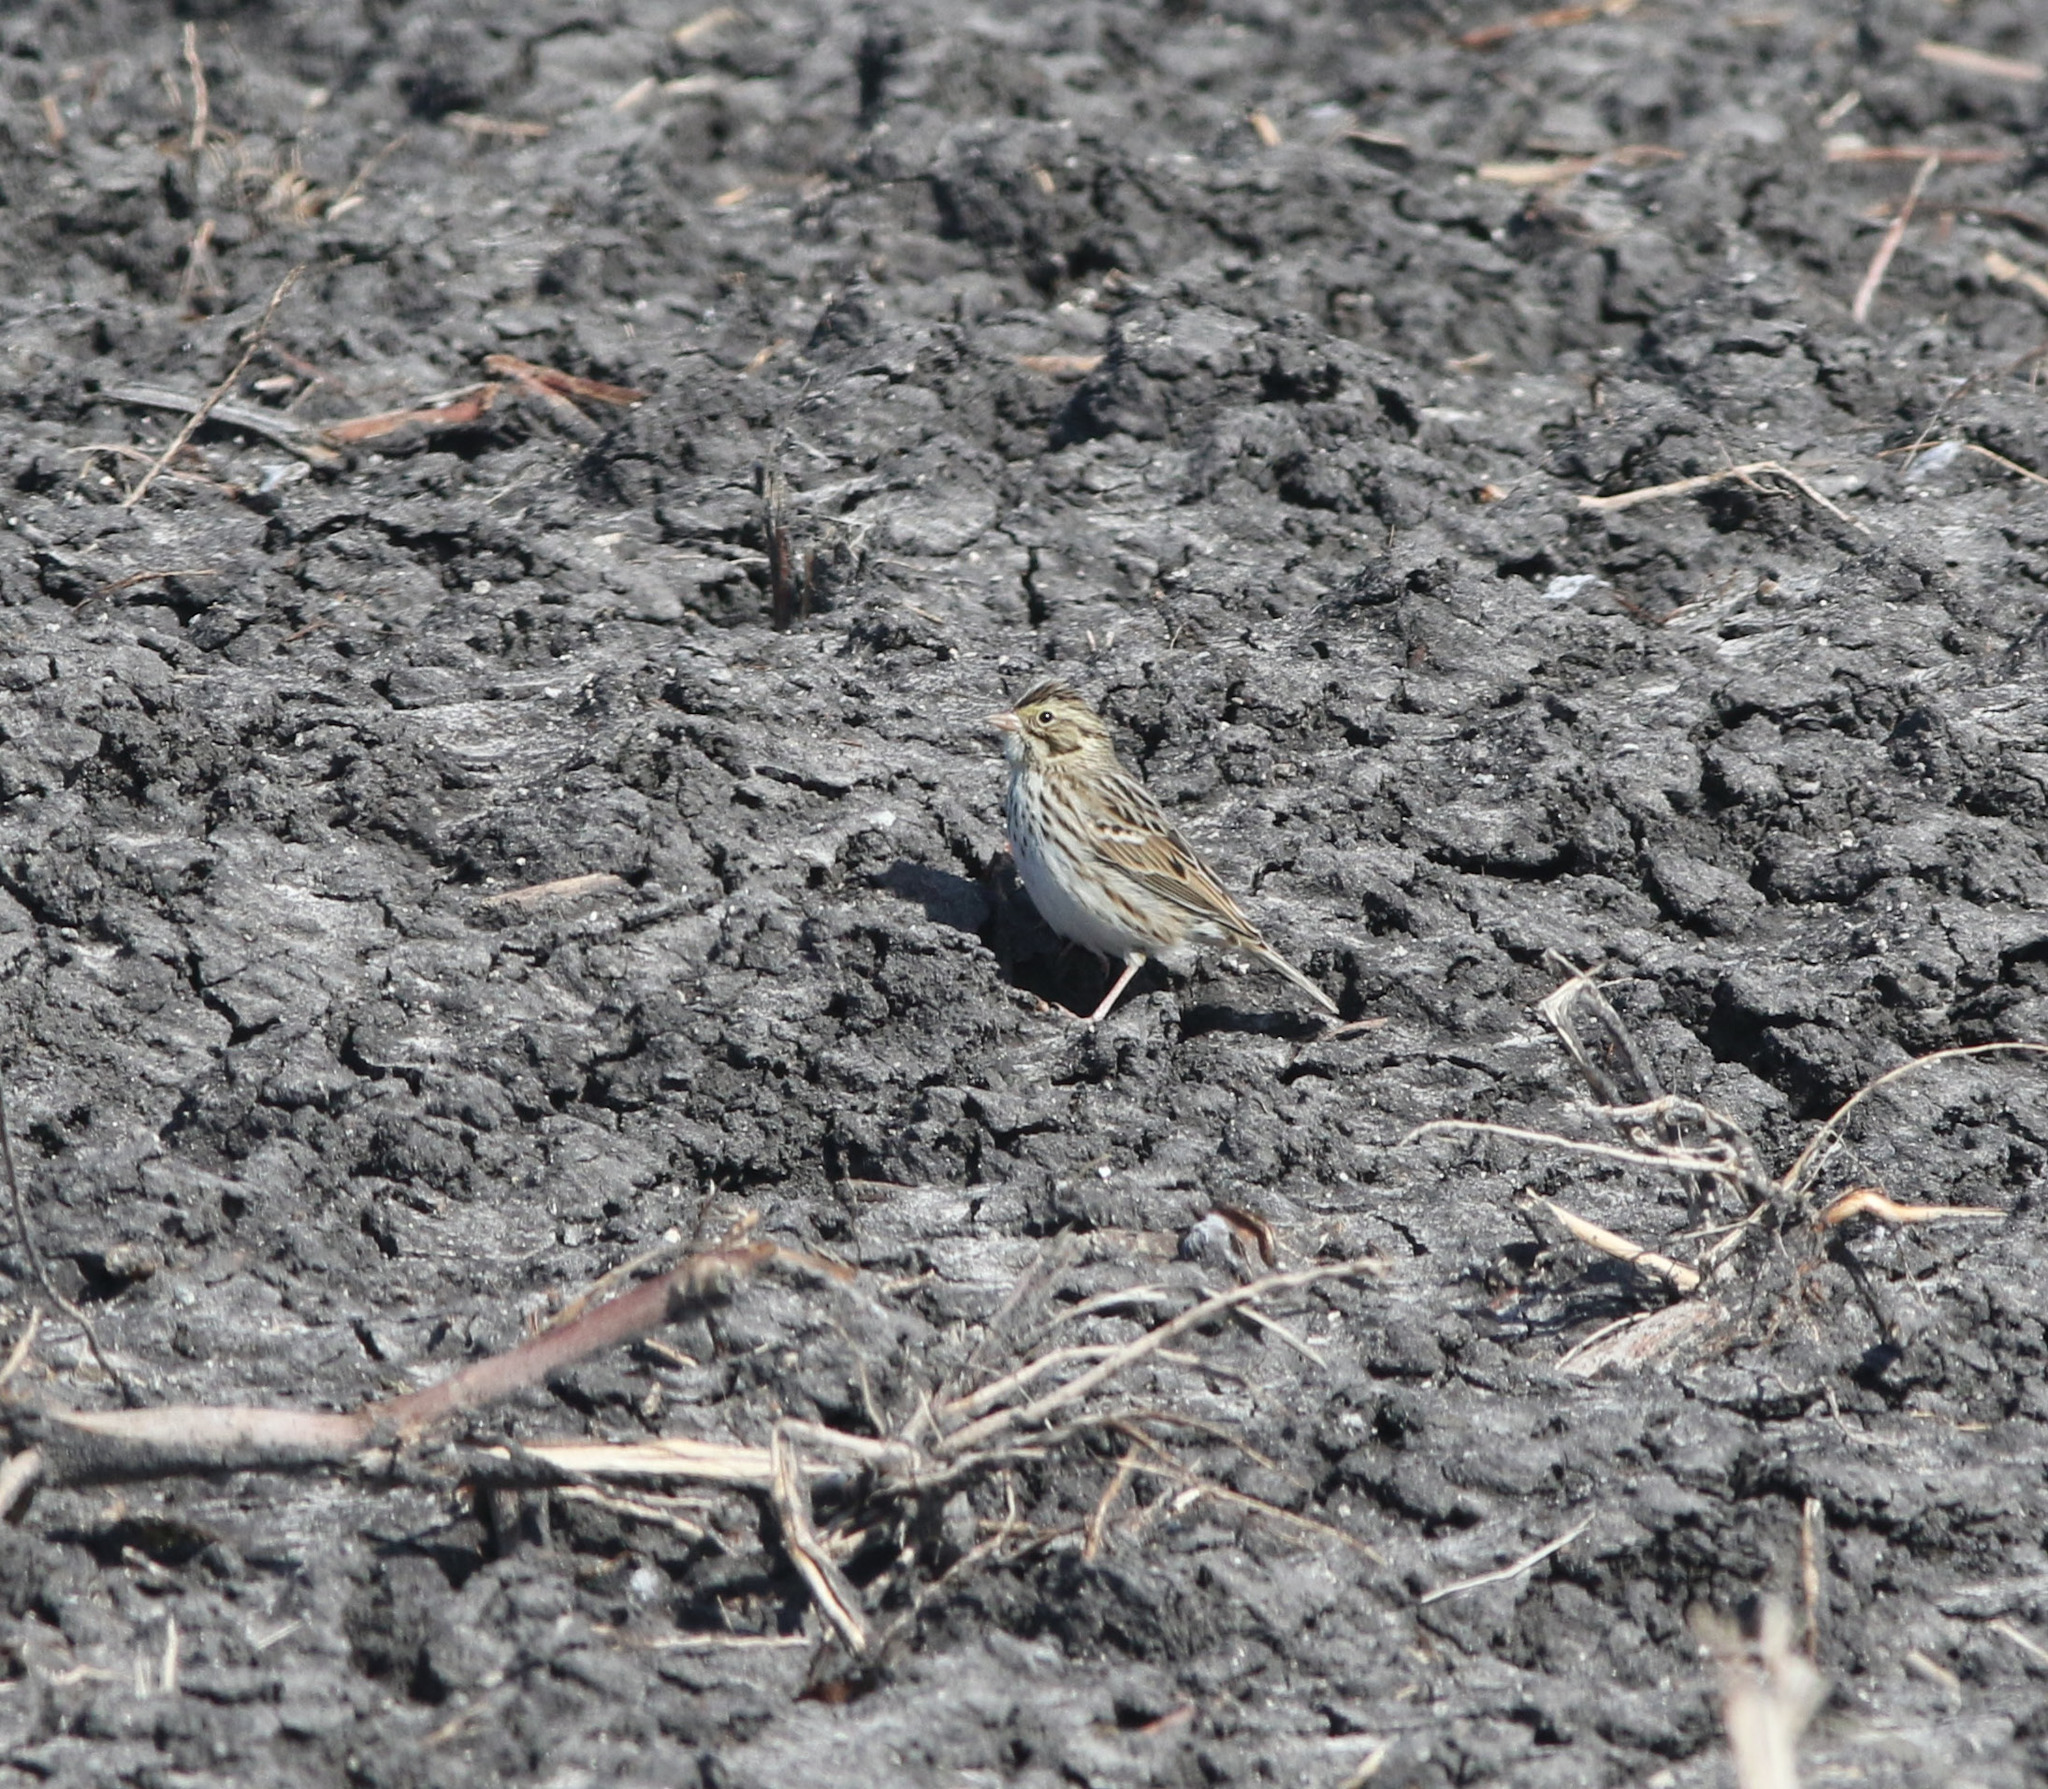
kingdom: Animalia
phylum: Chordata
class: Aves
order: Passeriformes
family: Passerellidae
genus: Passerculus
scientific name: Passerculus sandwichensis
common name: Savannah sparrow
